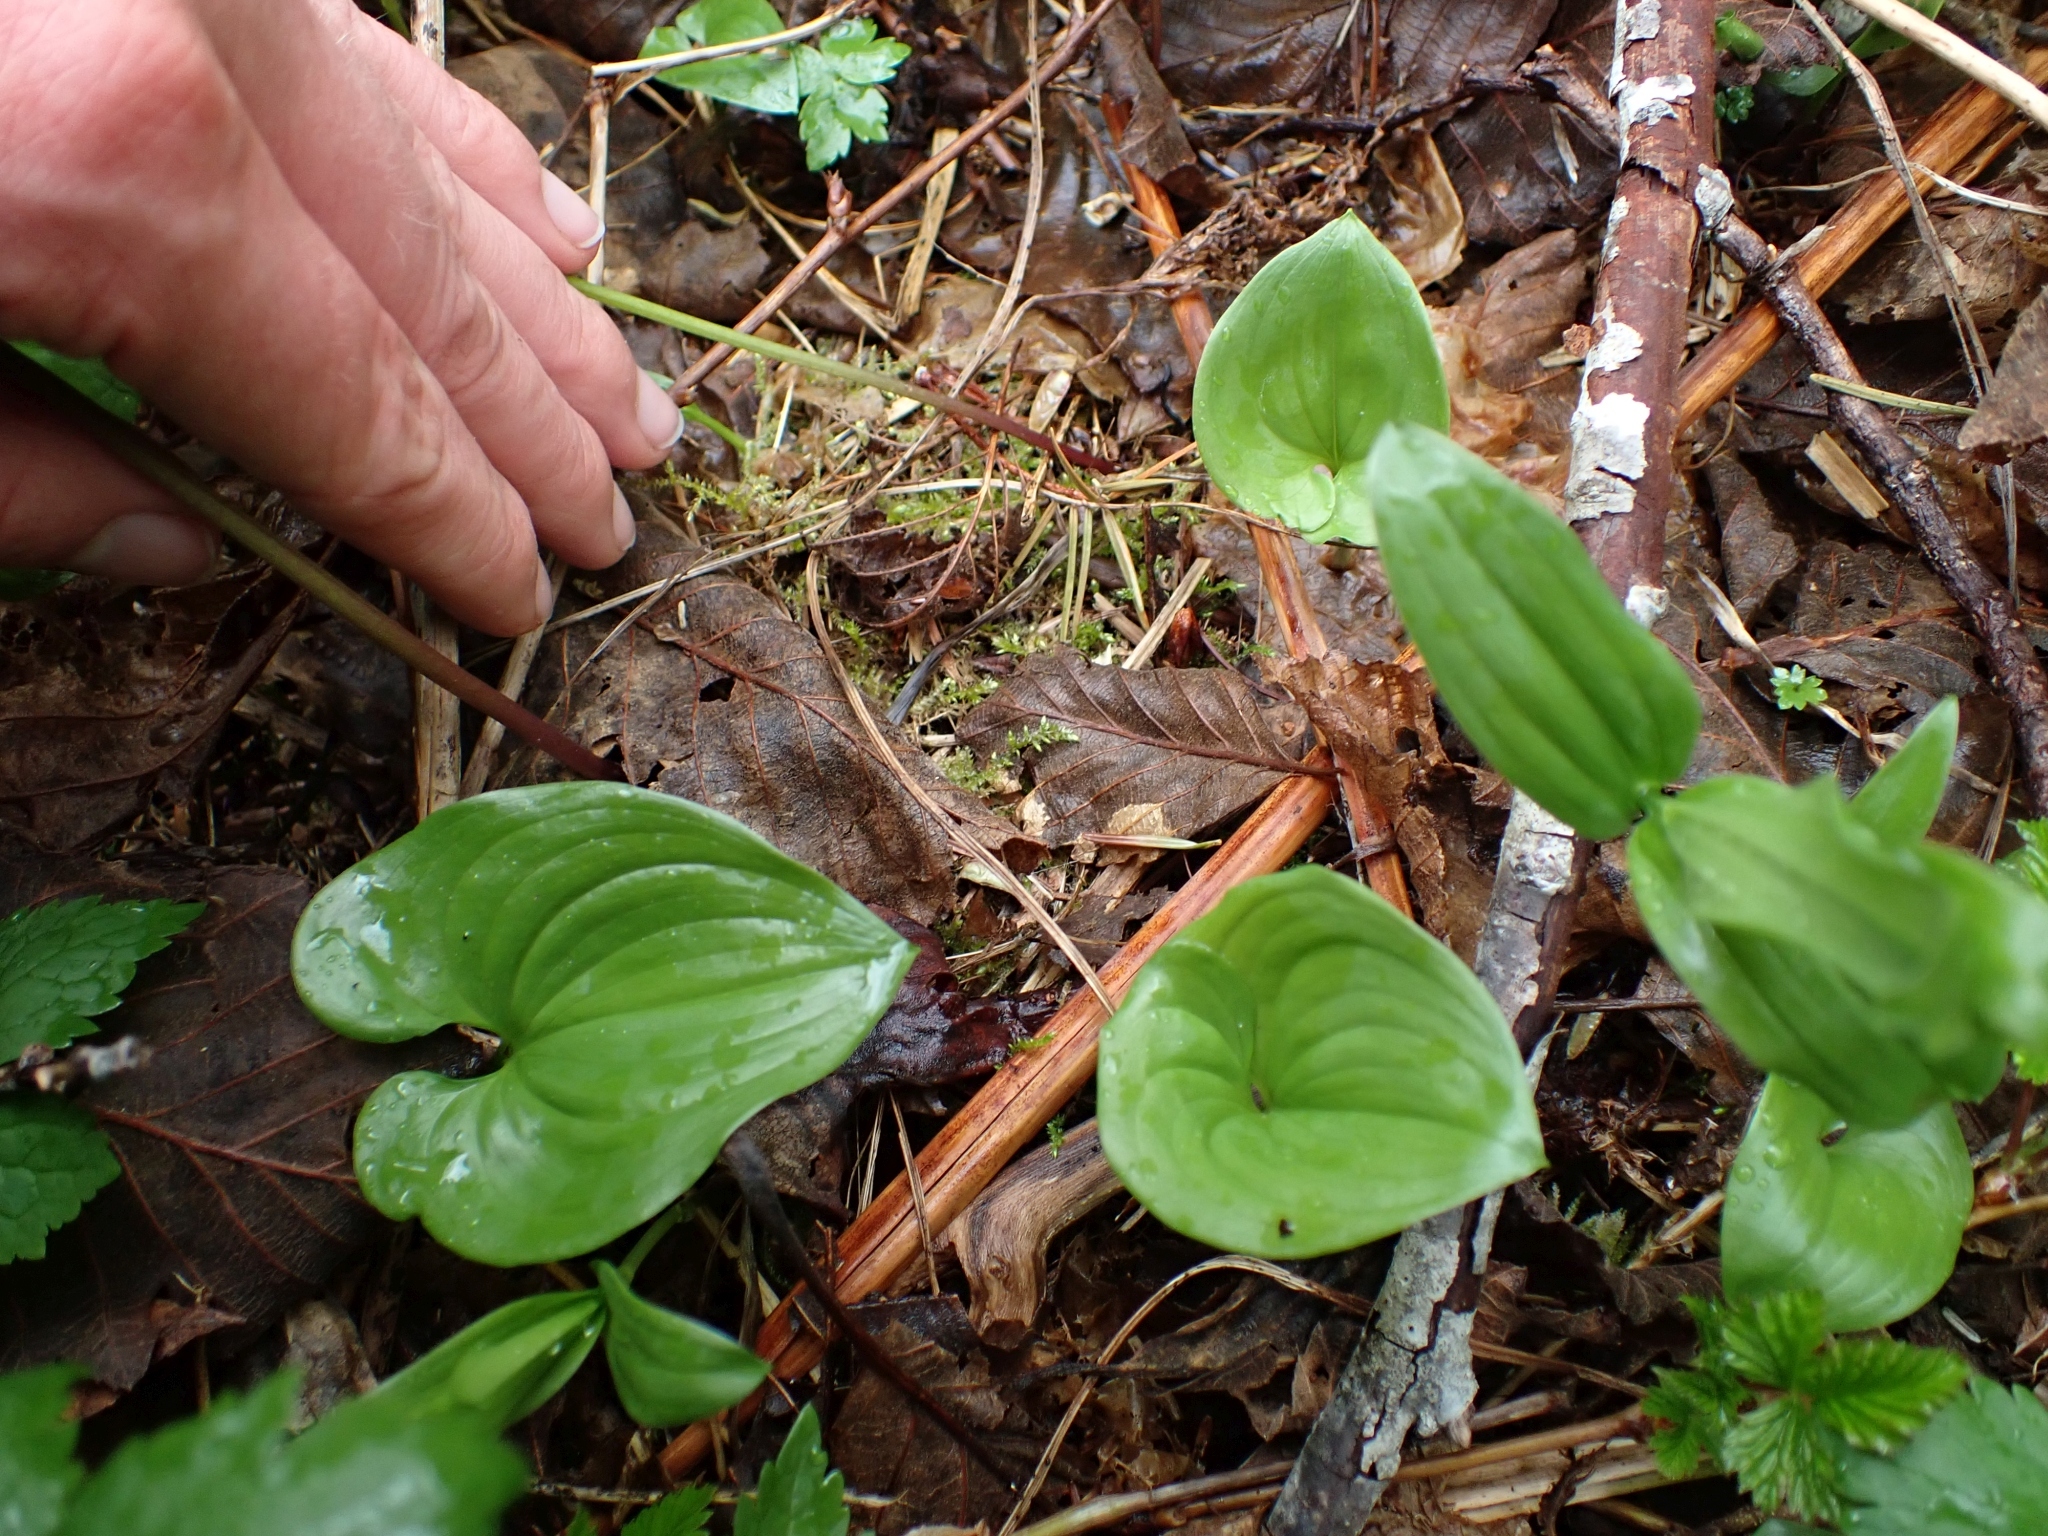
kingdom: Plantae
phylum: Tracheophyta
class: Liliopsida
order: Asparagales
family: Asparagaceae
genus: Maianthemum
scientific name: Maianthemum dilatatum
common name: False lily-of-the-valley
